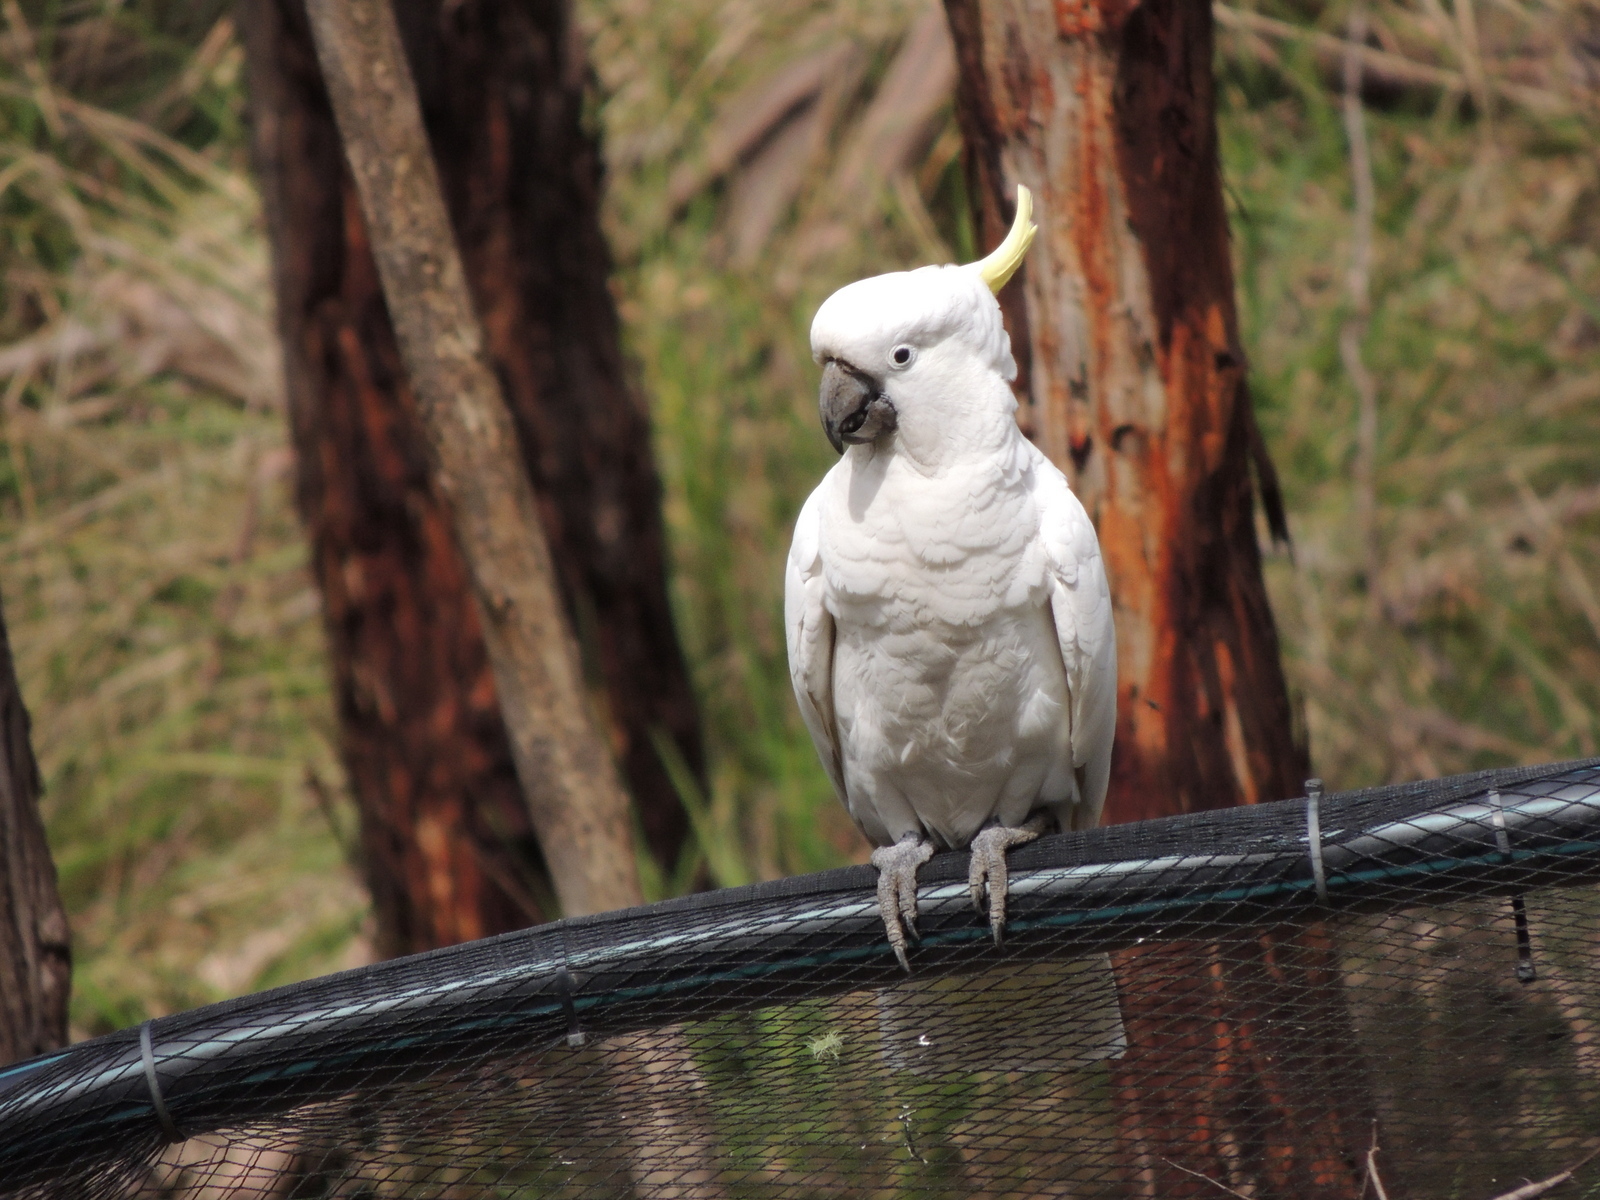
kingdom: Animalia
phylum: Chordata
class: Aves
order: Psittaciformes
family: Psittacidae
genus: Cacatua
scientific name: Cacatua galerita
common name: Sulphur-crested cockatoo
